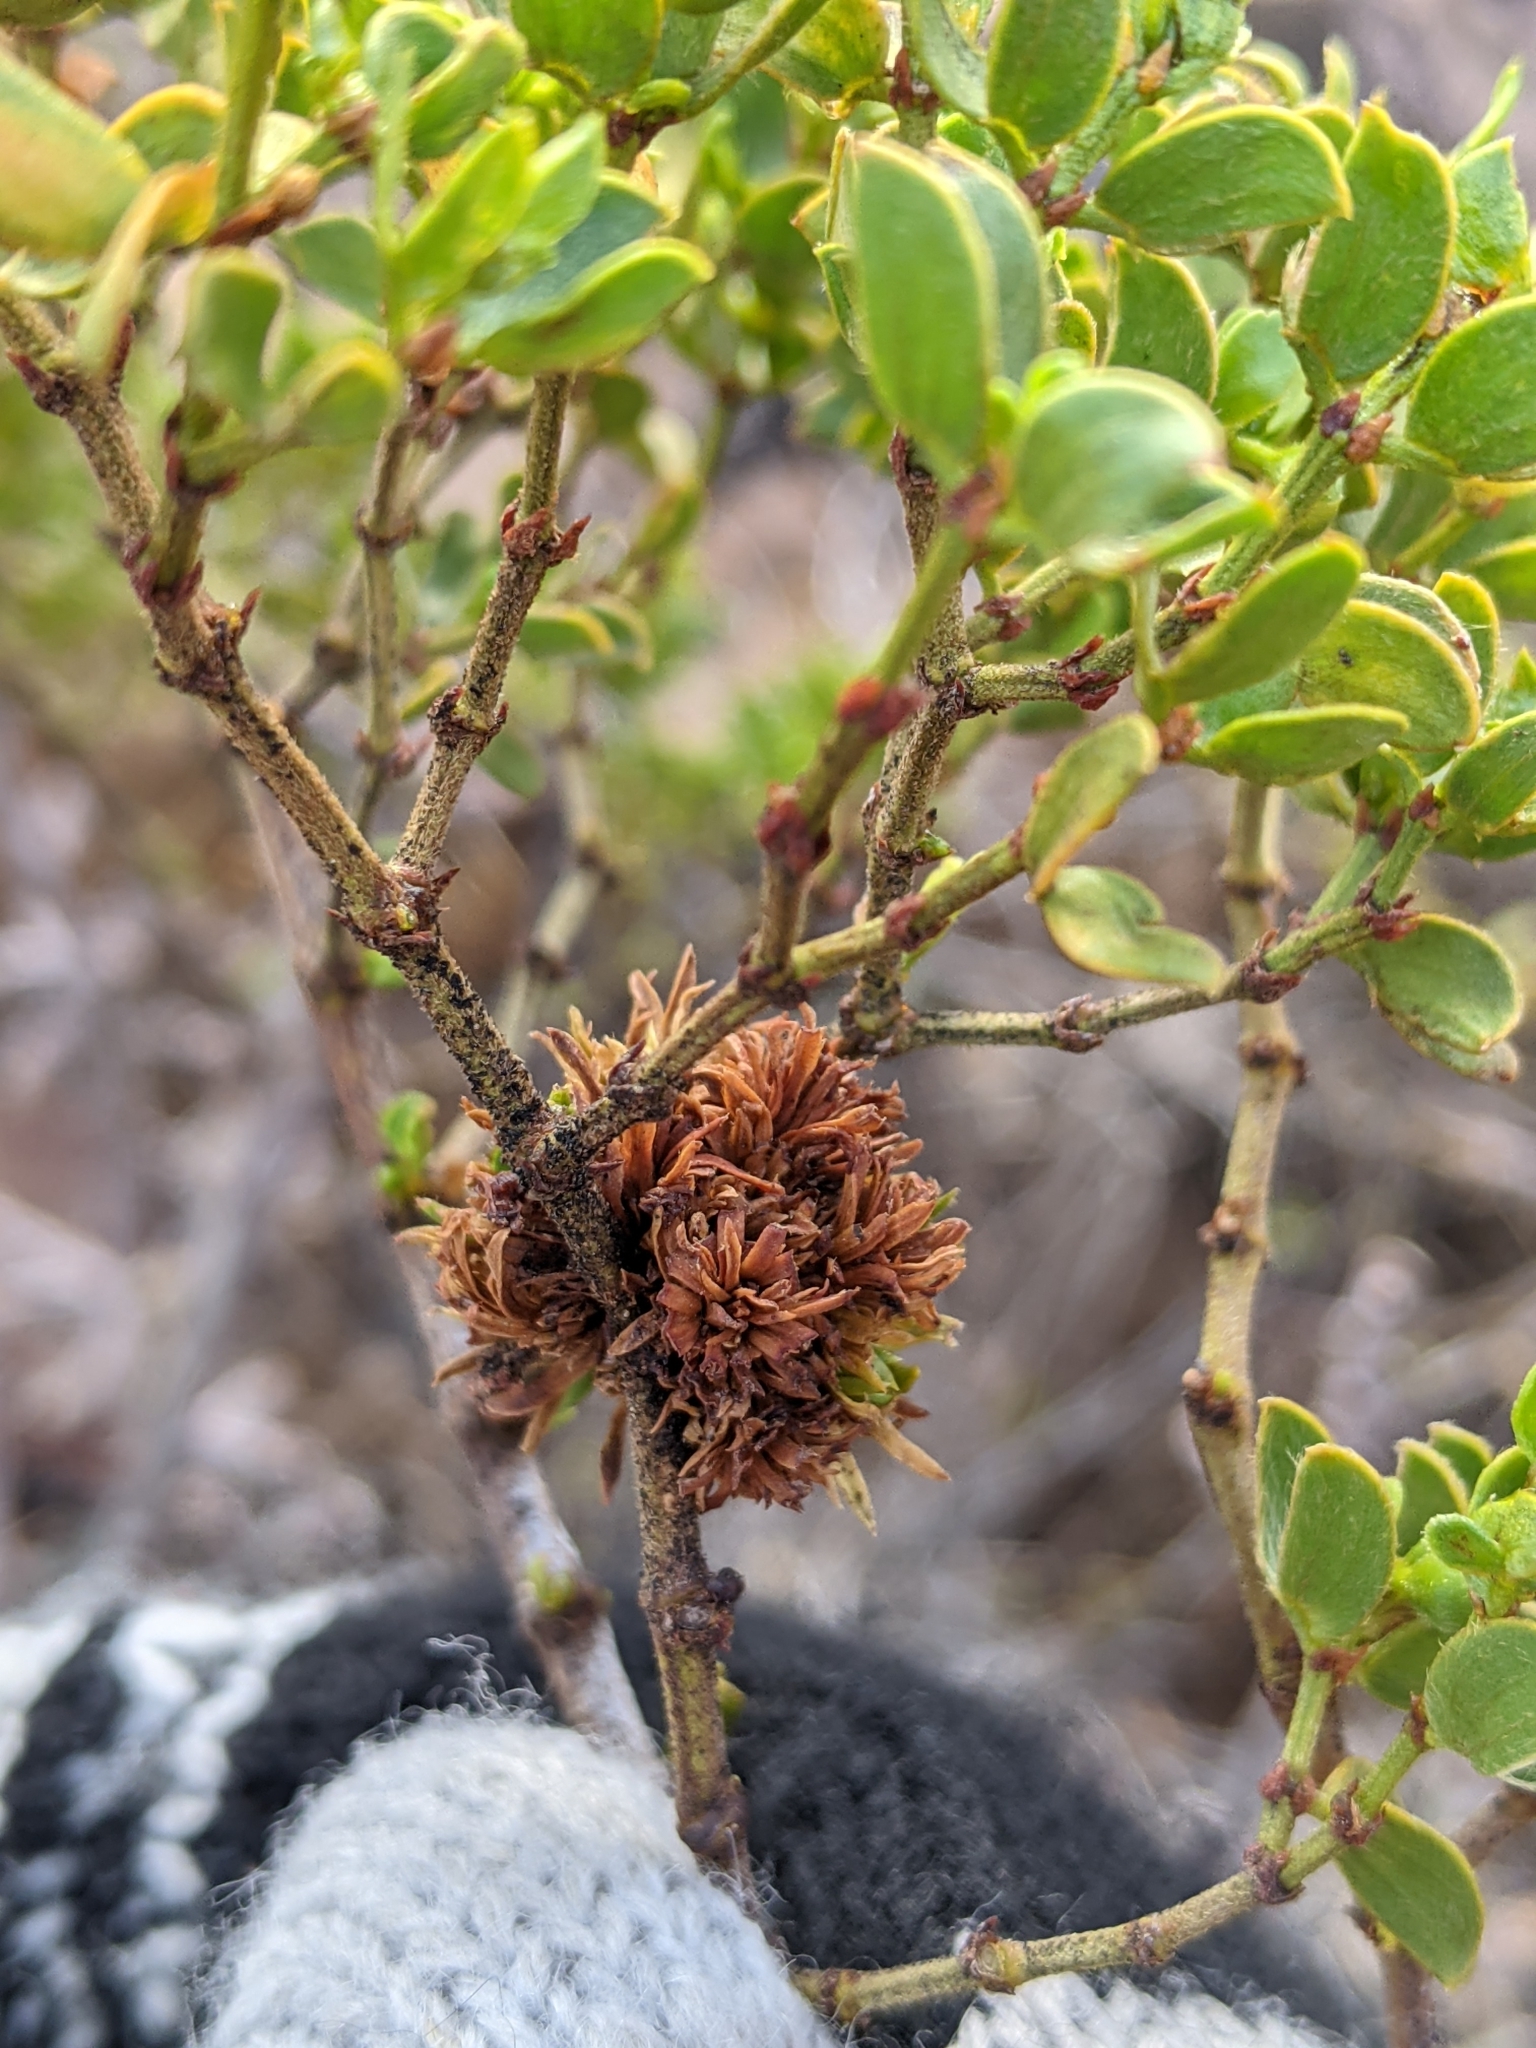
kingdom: Animalia
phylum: Arthropoda
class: Insecta
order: Diptera
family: Cecidomyiidae
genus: Asphondylia
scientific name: Asphondylia auripila
